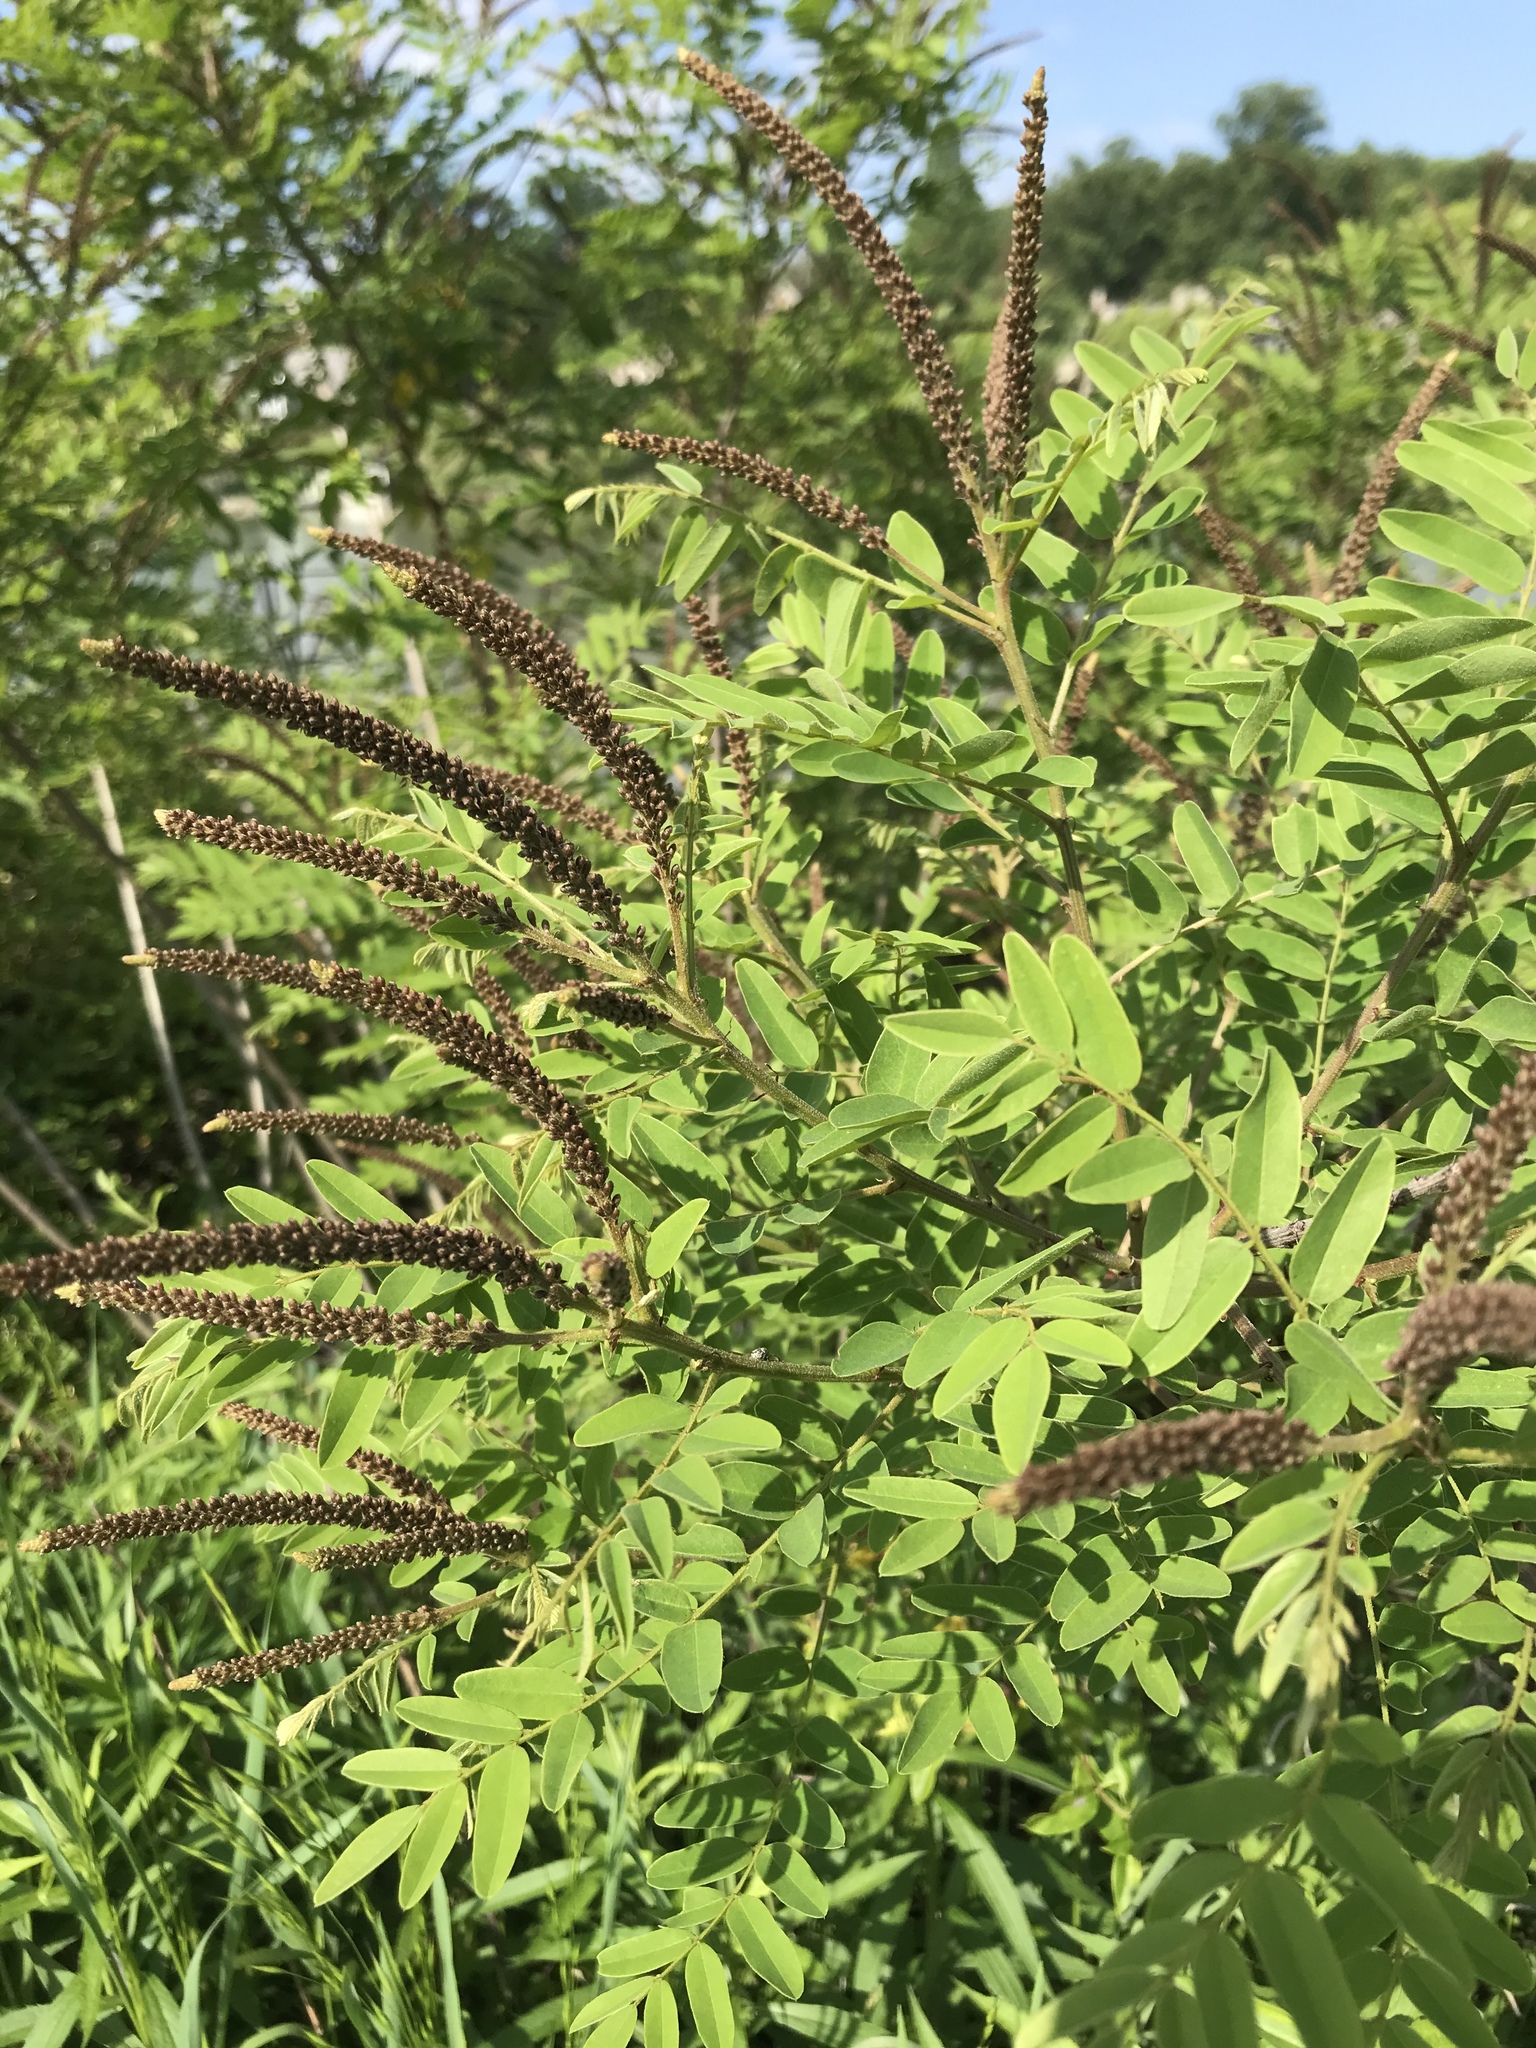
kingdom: Plantae
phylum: Tracheophyta
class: Magnoliopsida
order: Fabales
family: Fabaceae
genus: Amorpha
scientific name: Amorpha fruticosa
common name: False indigo
